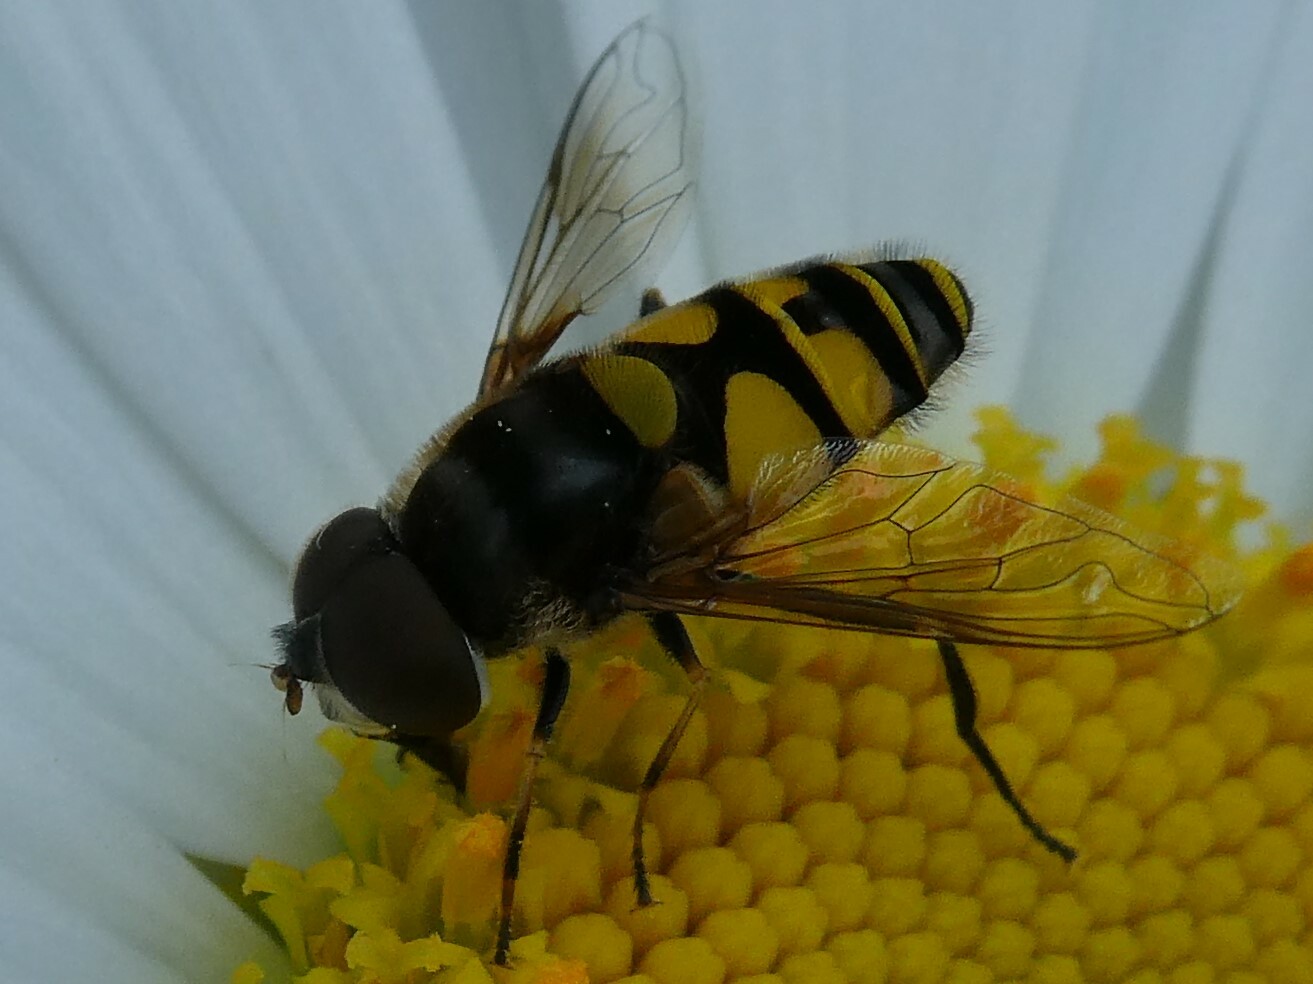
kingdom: Animalia
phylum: Arthropoda
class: Insecta
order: Diptera
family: Syrphidae
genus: Eristalis
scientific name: Eristalis transversa
